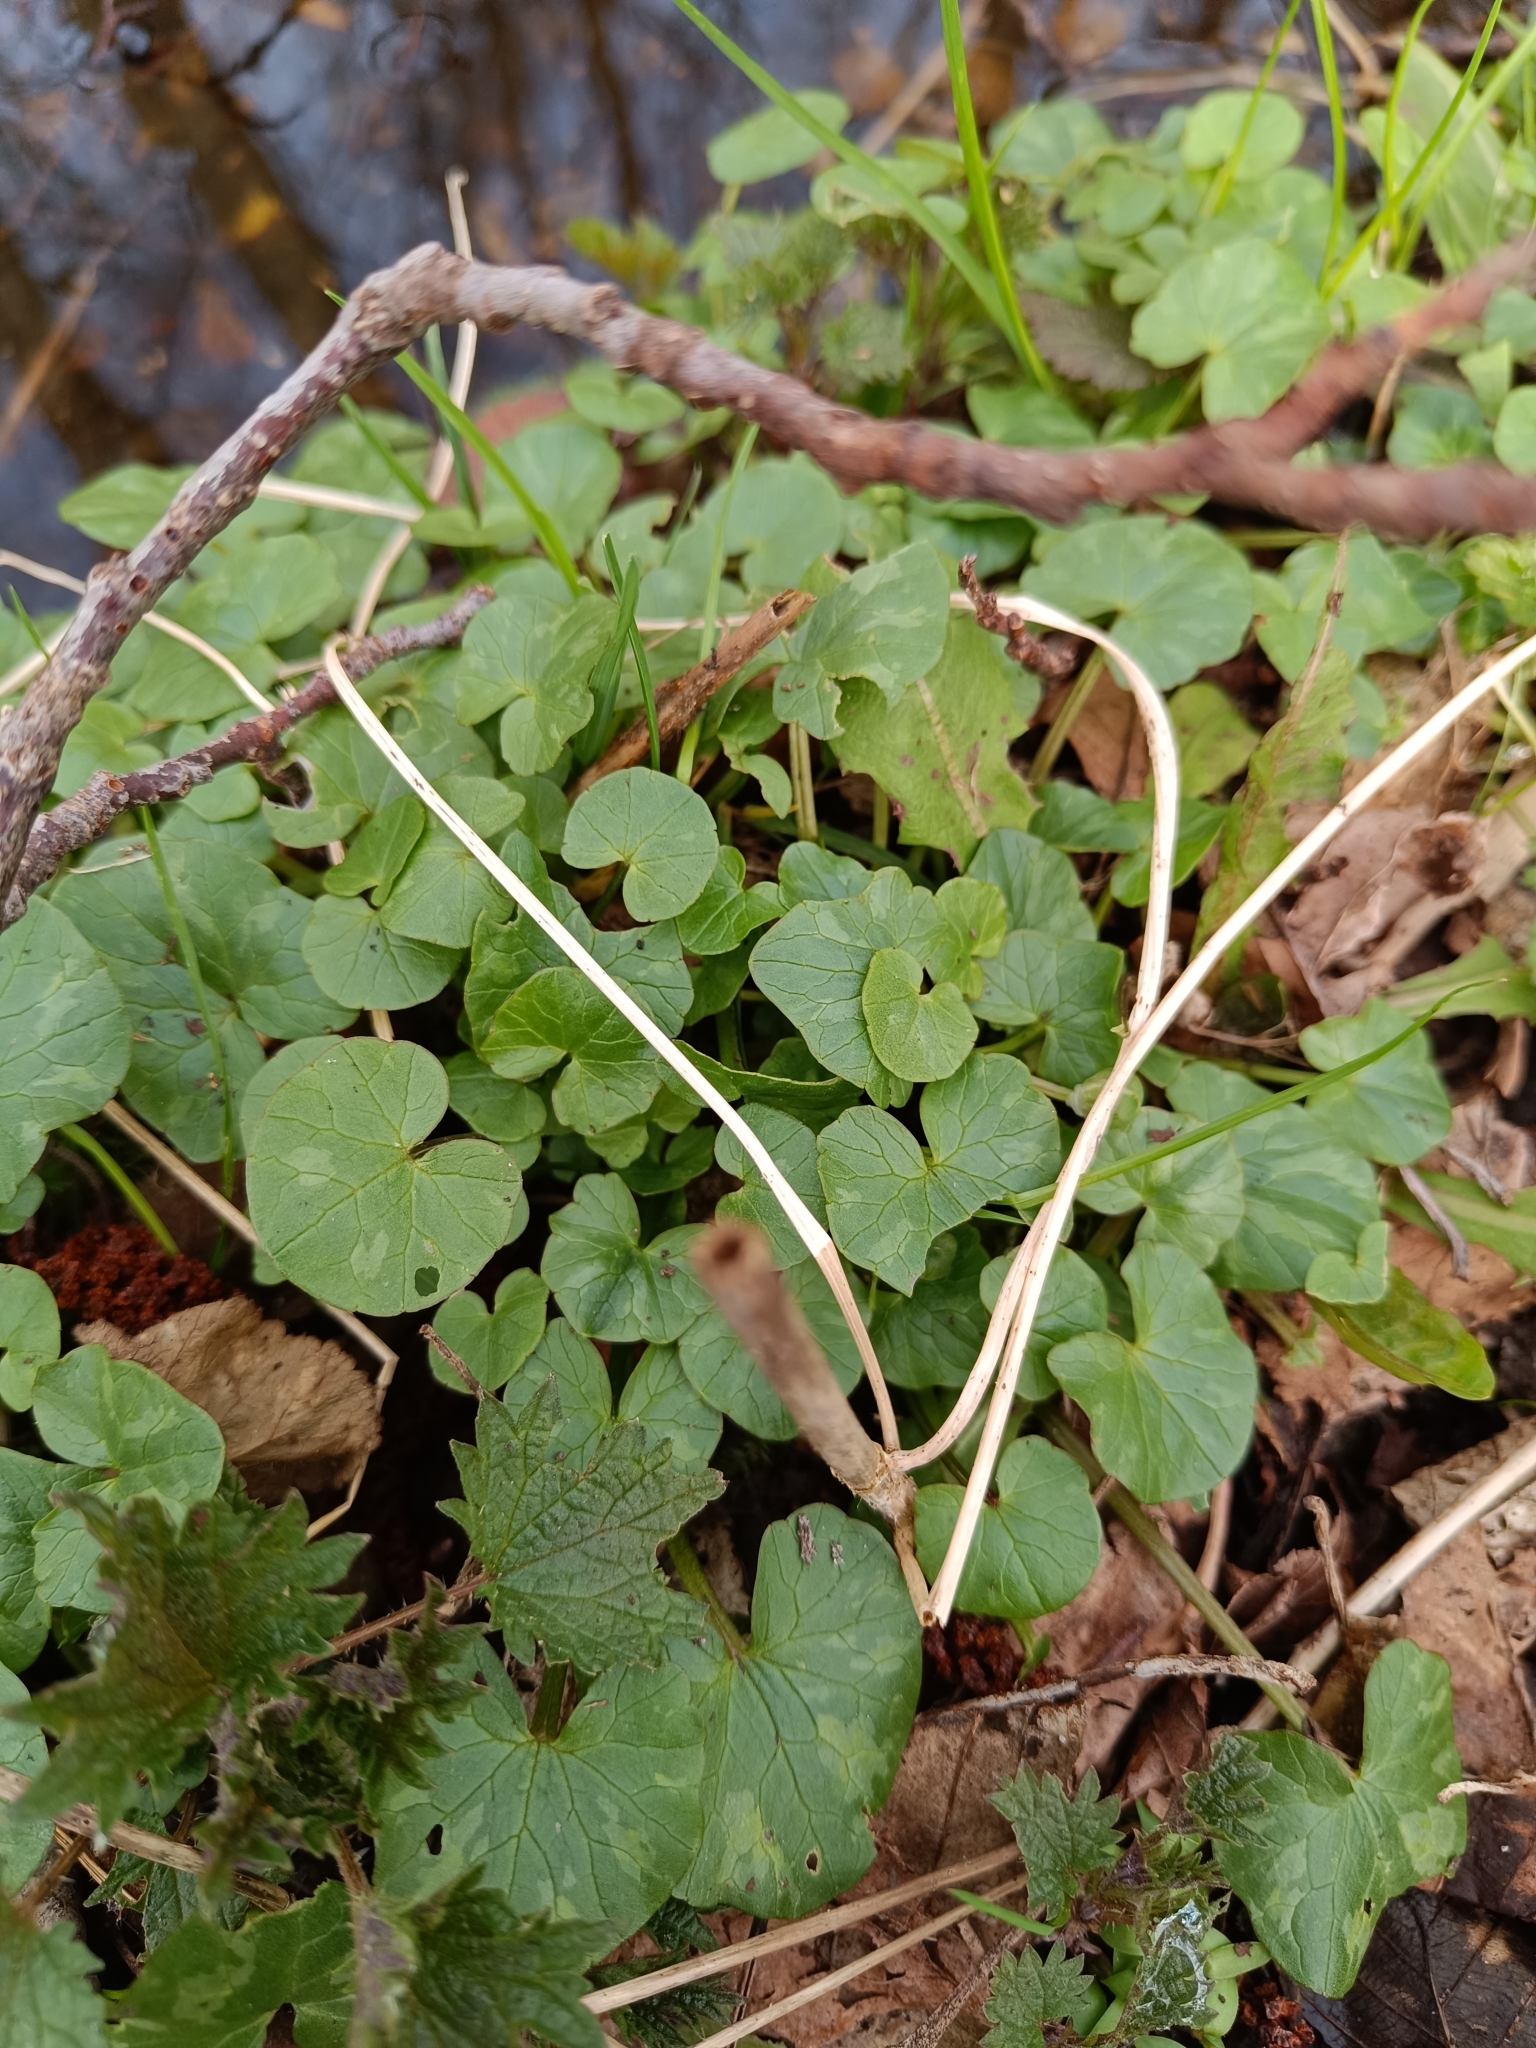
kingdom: Plantae
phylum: Tracheophyta
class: Magnoliopsida
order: Ranunculales
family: Ranunculaceae
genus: Ficaria
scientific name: Ficaria verna
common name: Lesser celandine
